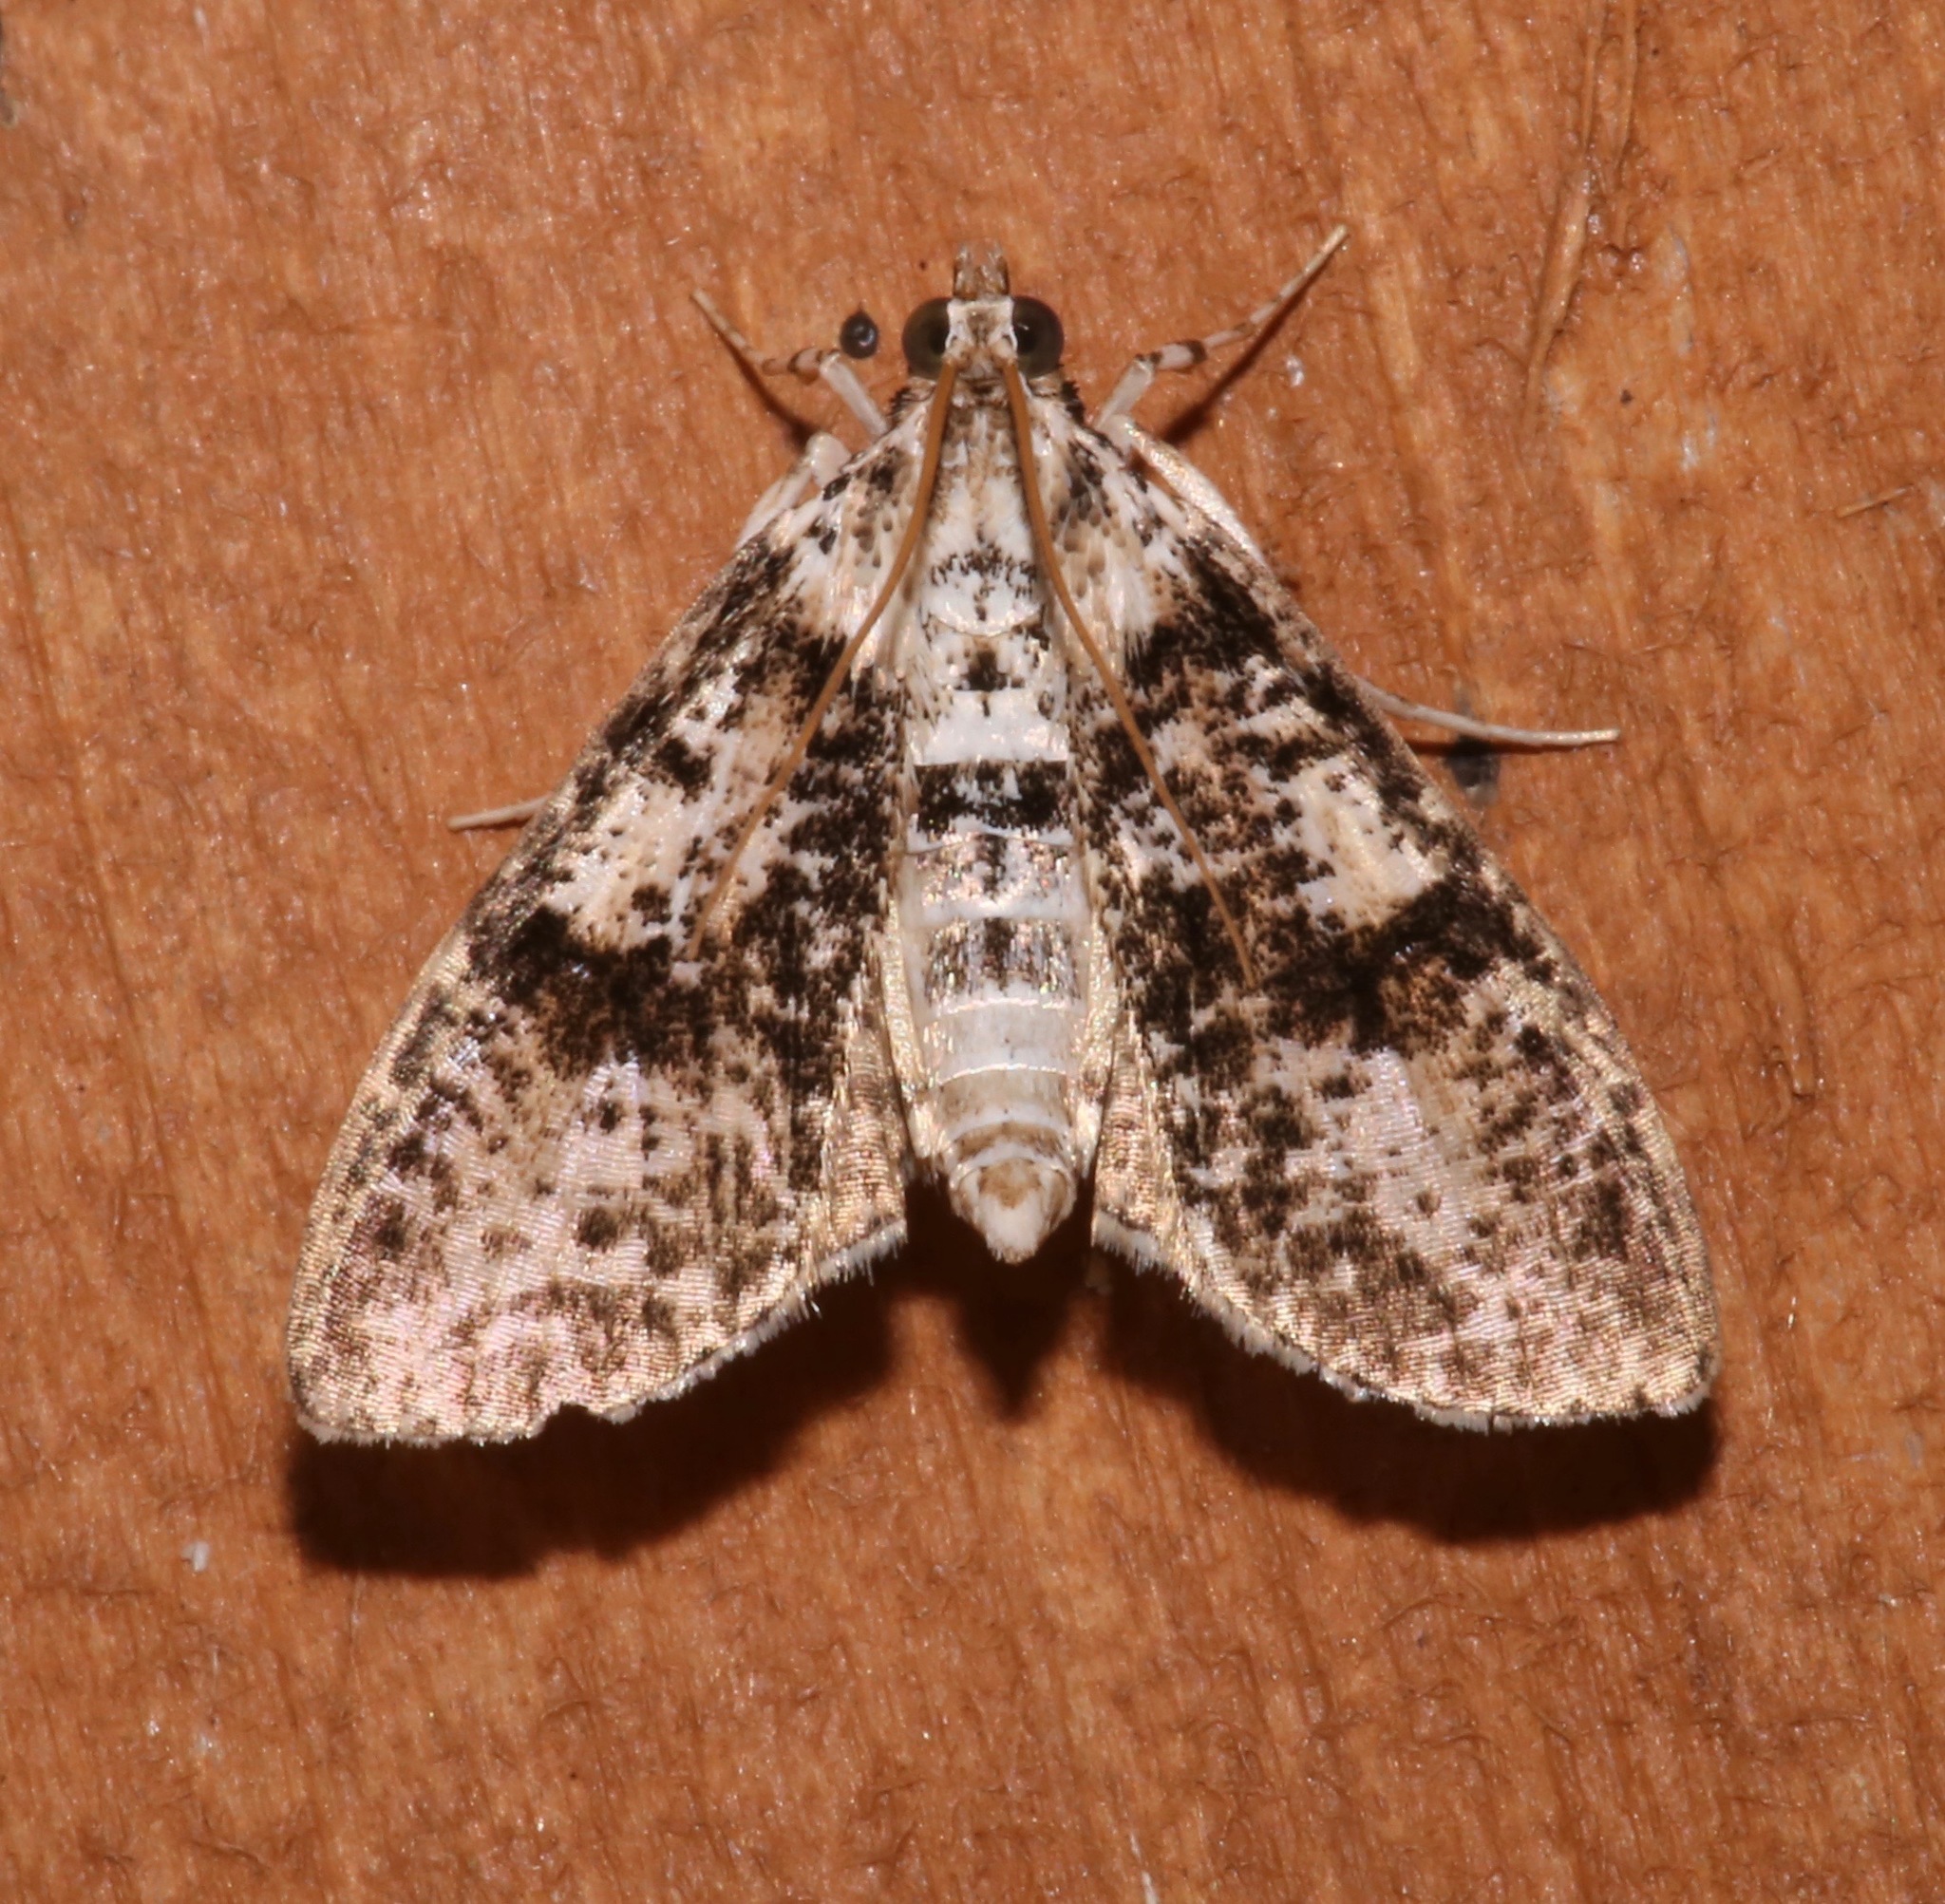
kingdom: Animalia
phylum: Arthropoda
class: Insecta
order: Lepidoptera
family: Crambidae
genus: Palpita
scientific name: Palpita magniferalis
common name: Splendid palpita moth
